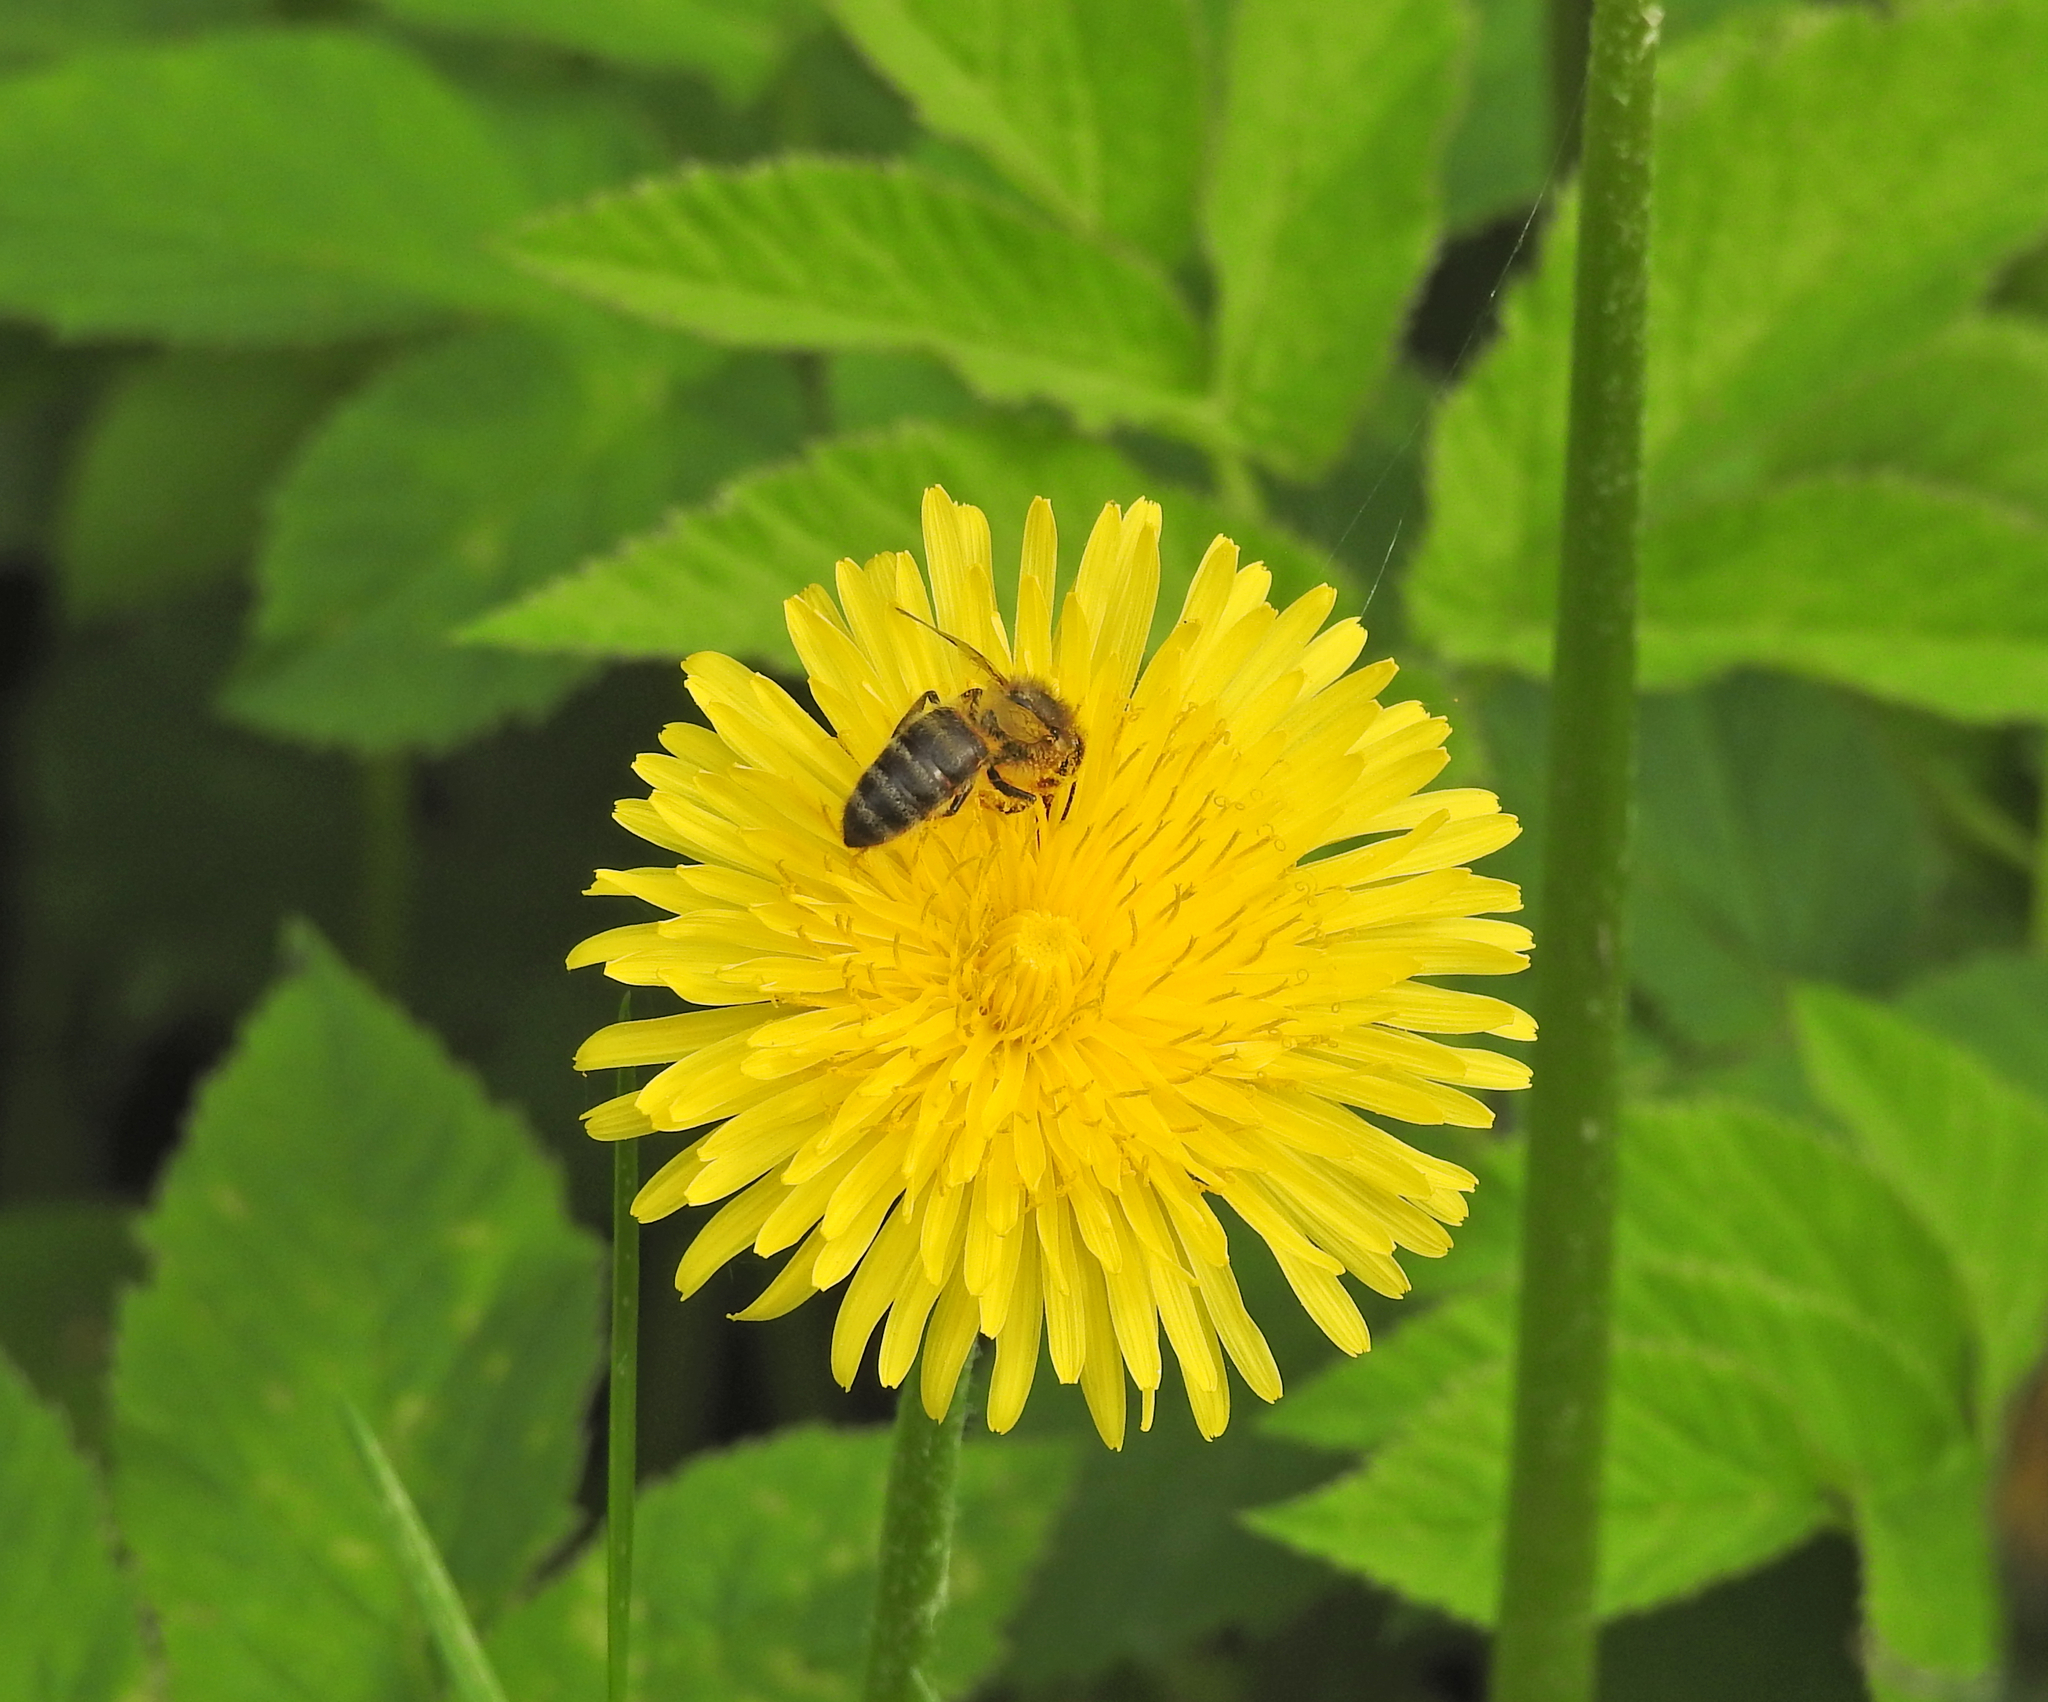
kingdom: Animalia
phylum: Arthropoda
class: Insecta
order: Hymenoptera
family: Apidae
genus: Apis
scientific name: Apis mellifera
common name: Honey bee
